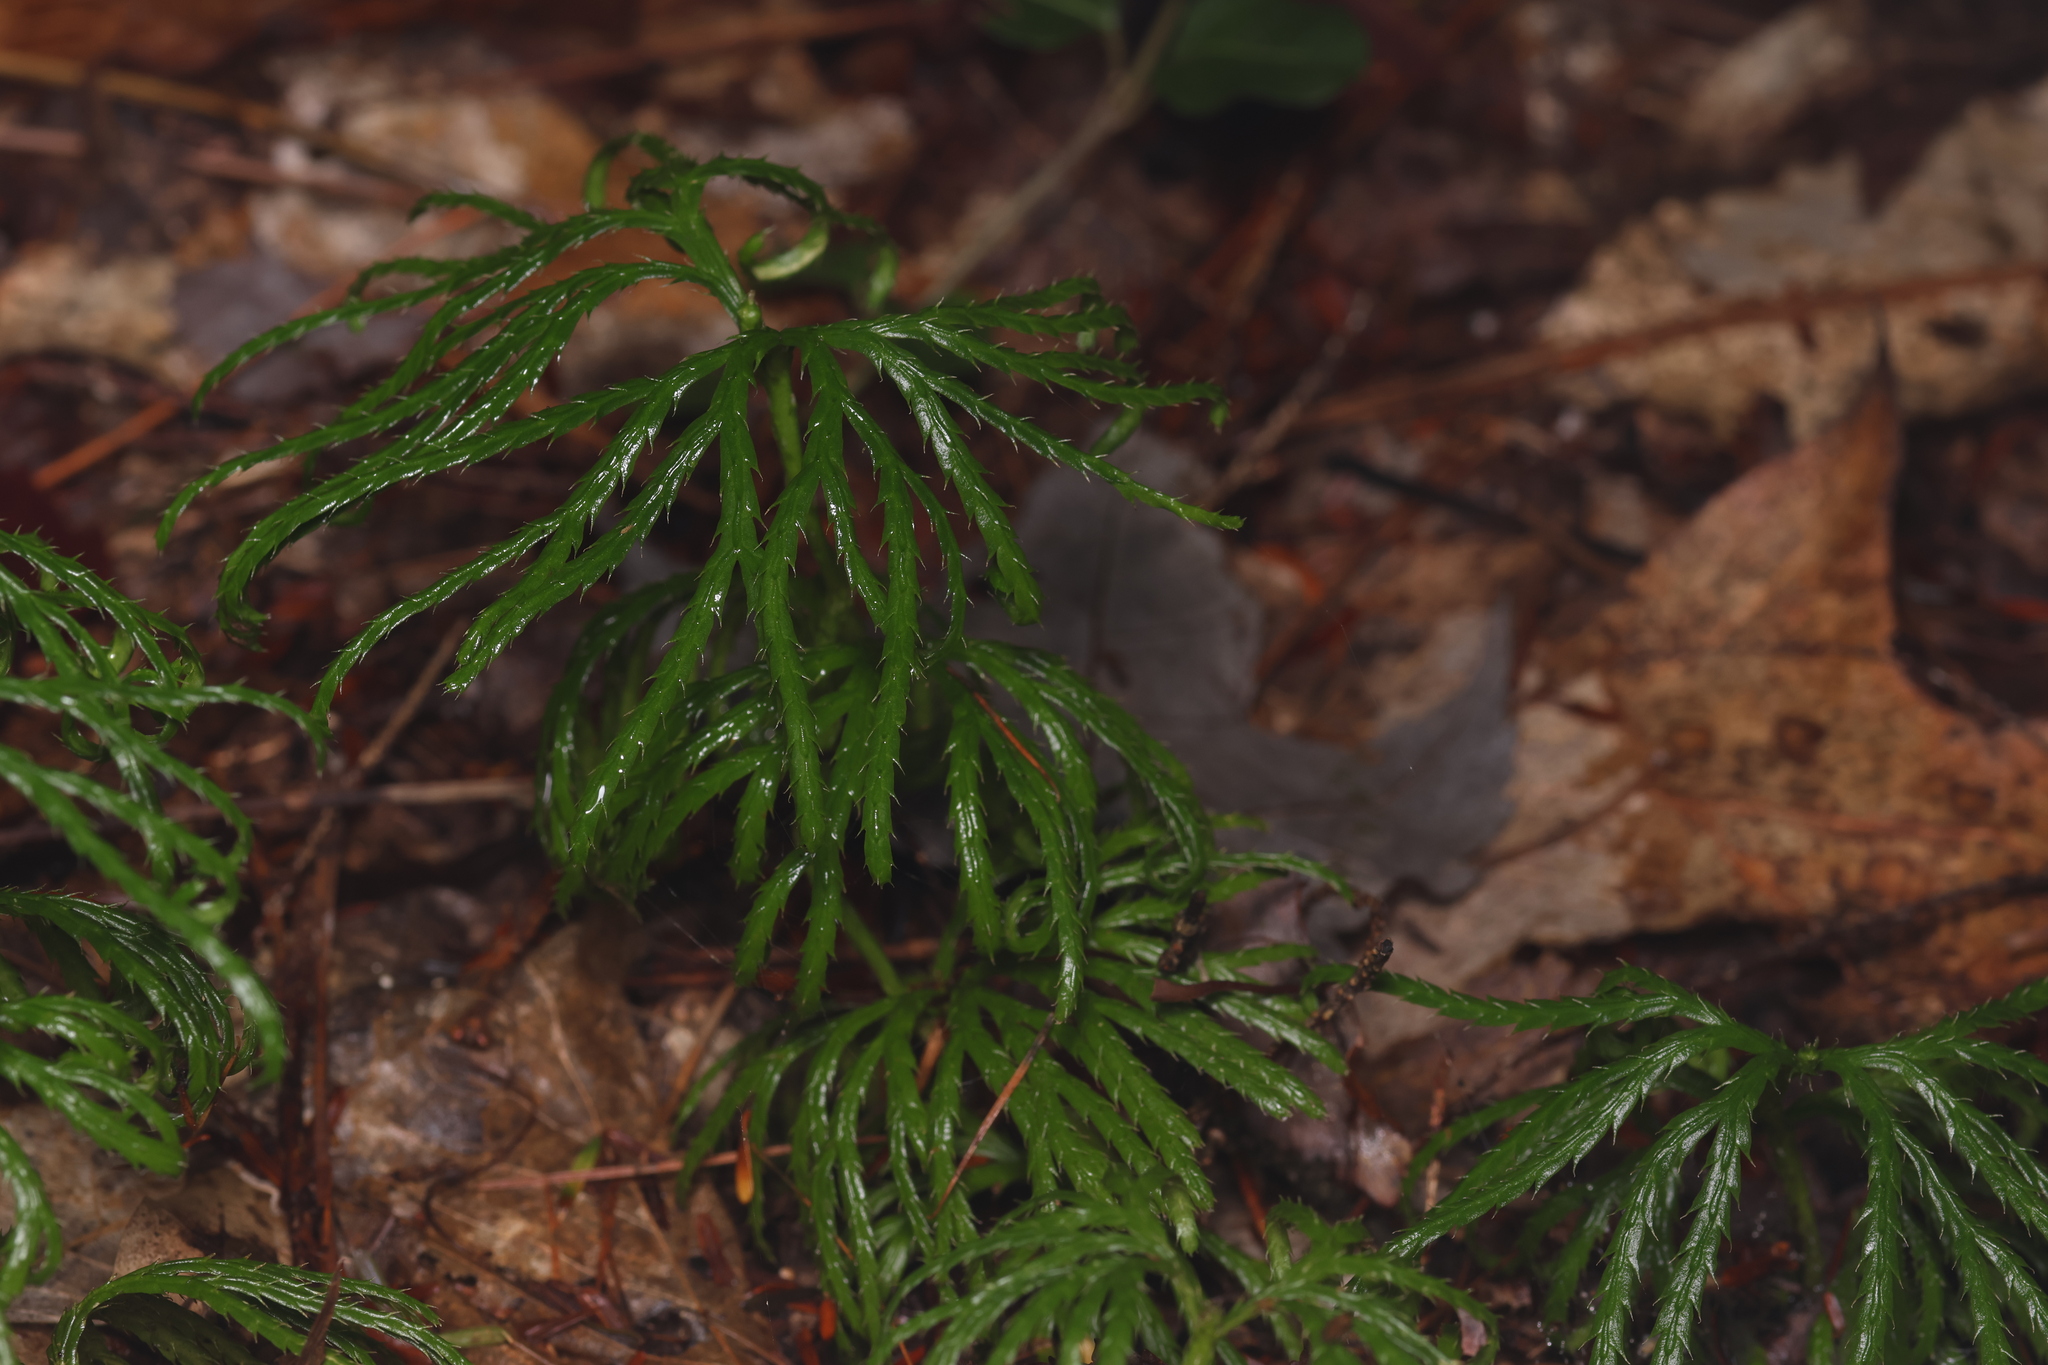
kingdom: Plantae
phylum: Tracheophyta
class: Lycopodiopsida
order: Lycopodiales
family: Lycopodiaceae
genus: Diphasiastrum
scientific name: Diphasiastrum digitatum
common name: Southern running-pine
